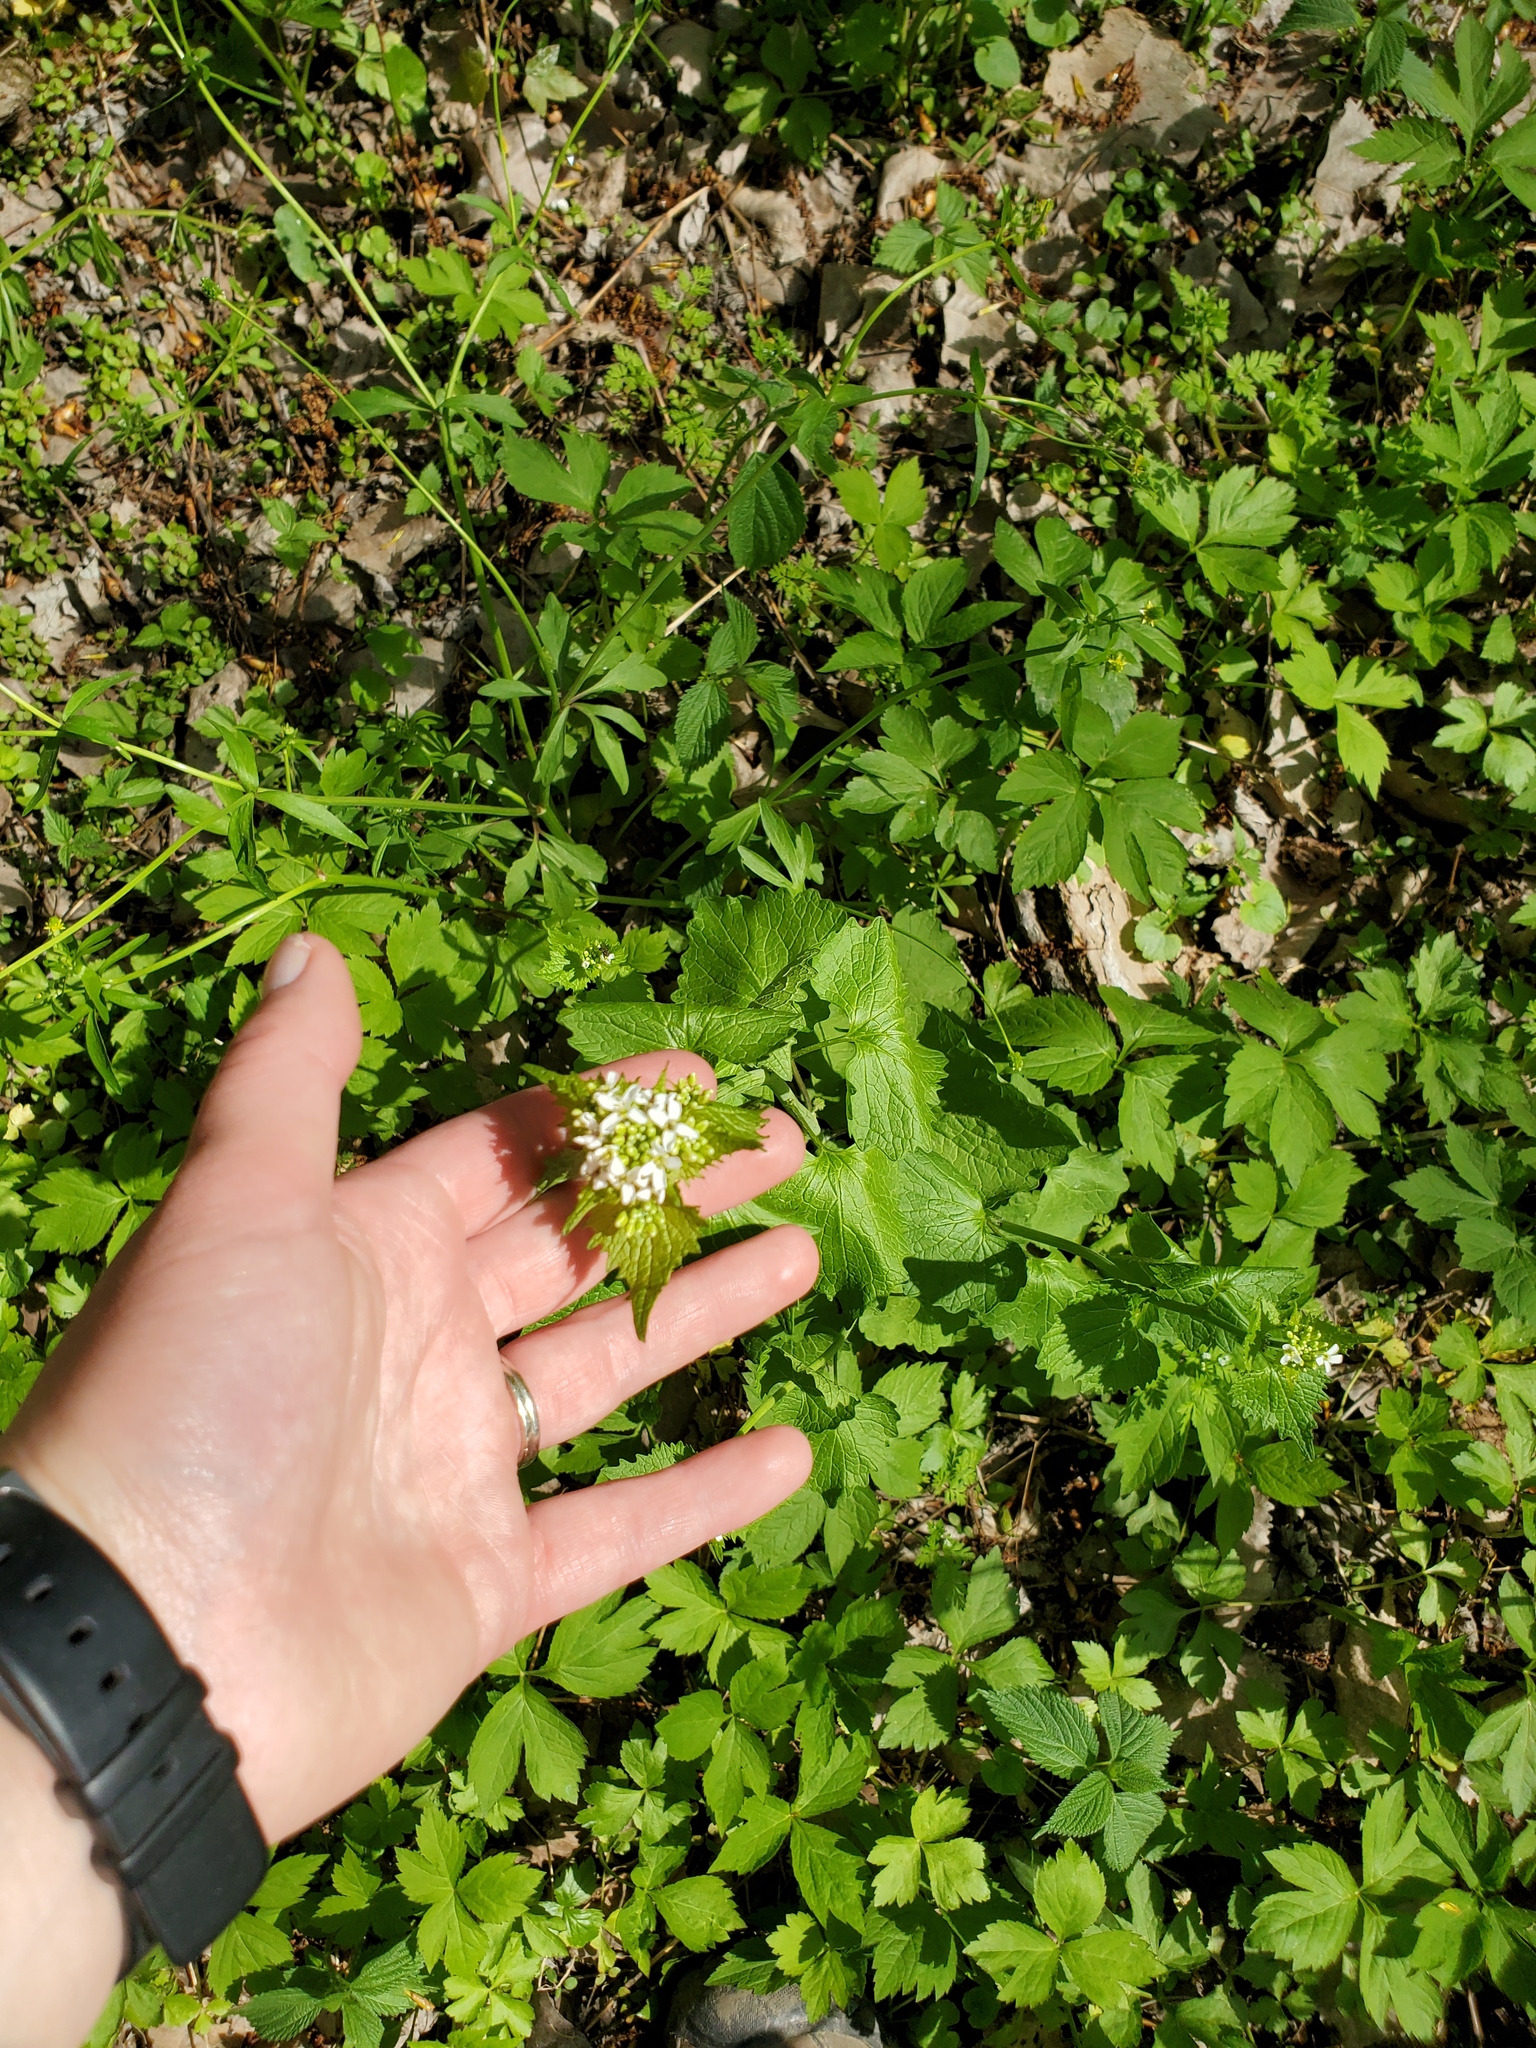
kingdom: Plantae
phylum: Tracheophyta
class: Magnoliopsida
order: Brassicales
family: Brassicaceae
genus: Alliaria
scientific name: Alliaria petiolata
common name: Garlic mustard
